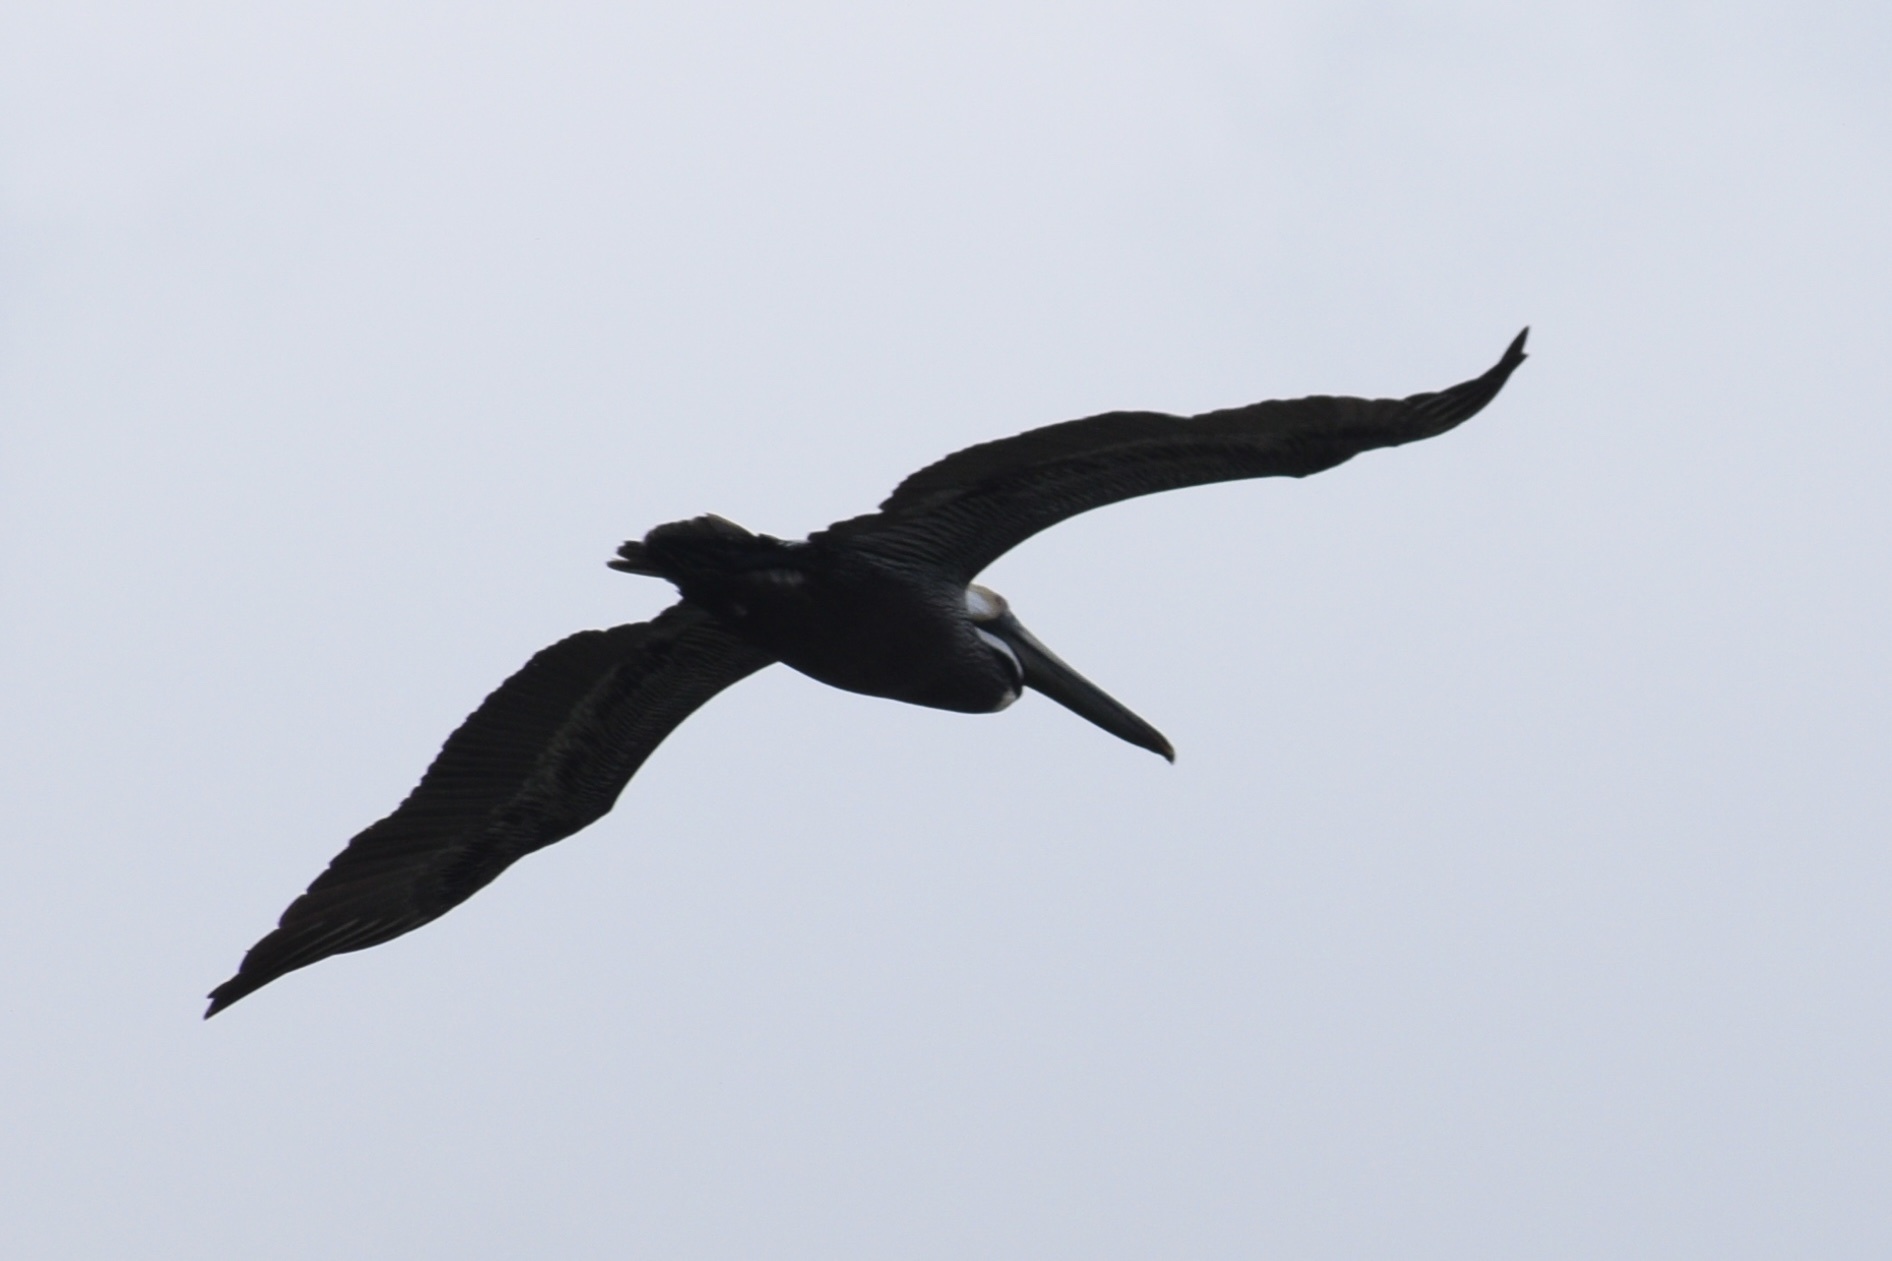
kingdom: Animalia
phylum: Chordata
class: Aves
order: Pelecaniformes
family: Pelecanidae
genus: Pelecanus
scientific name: Pelecanus occidentalis
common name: Brown pelican
